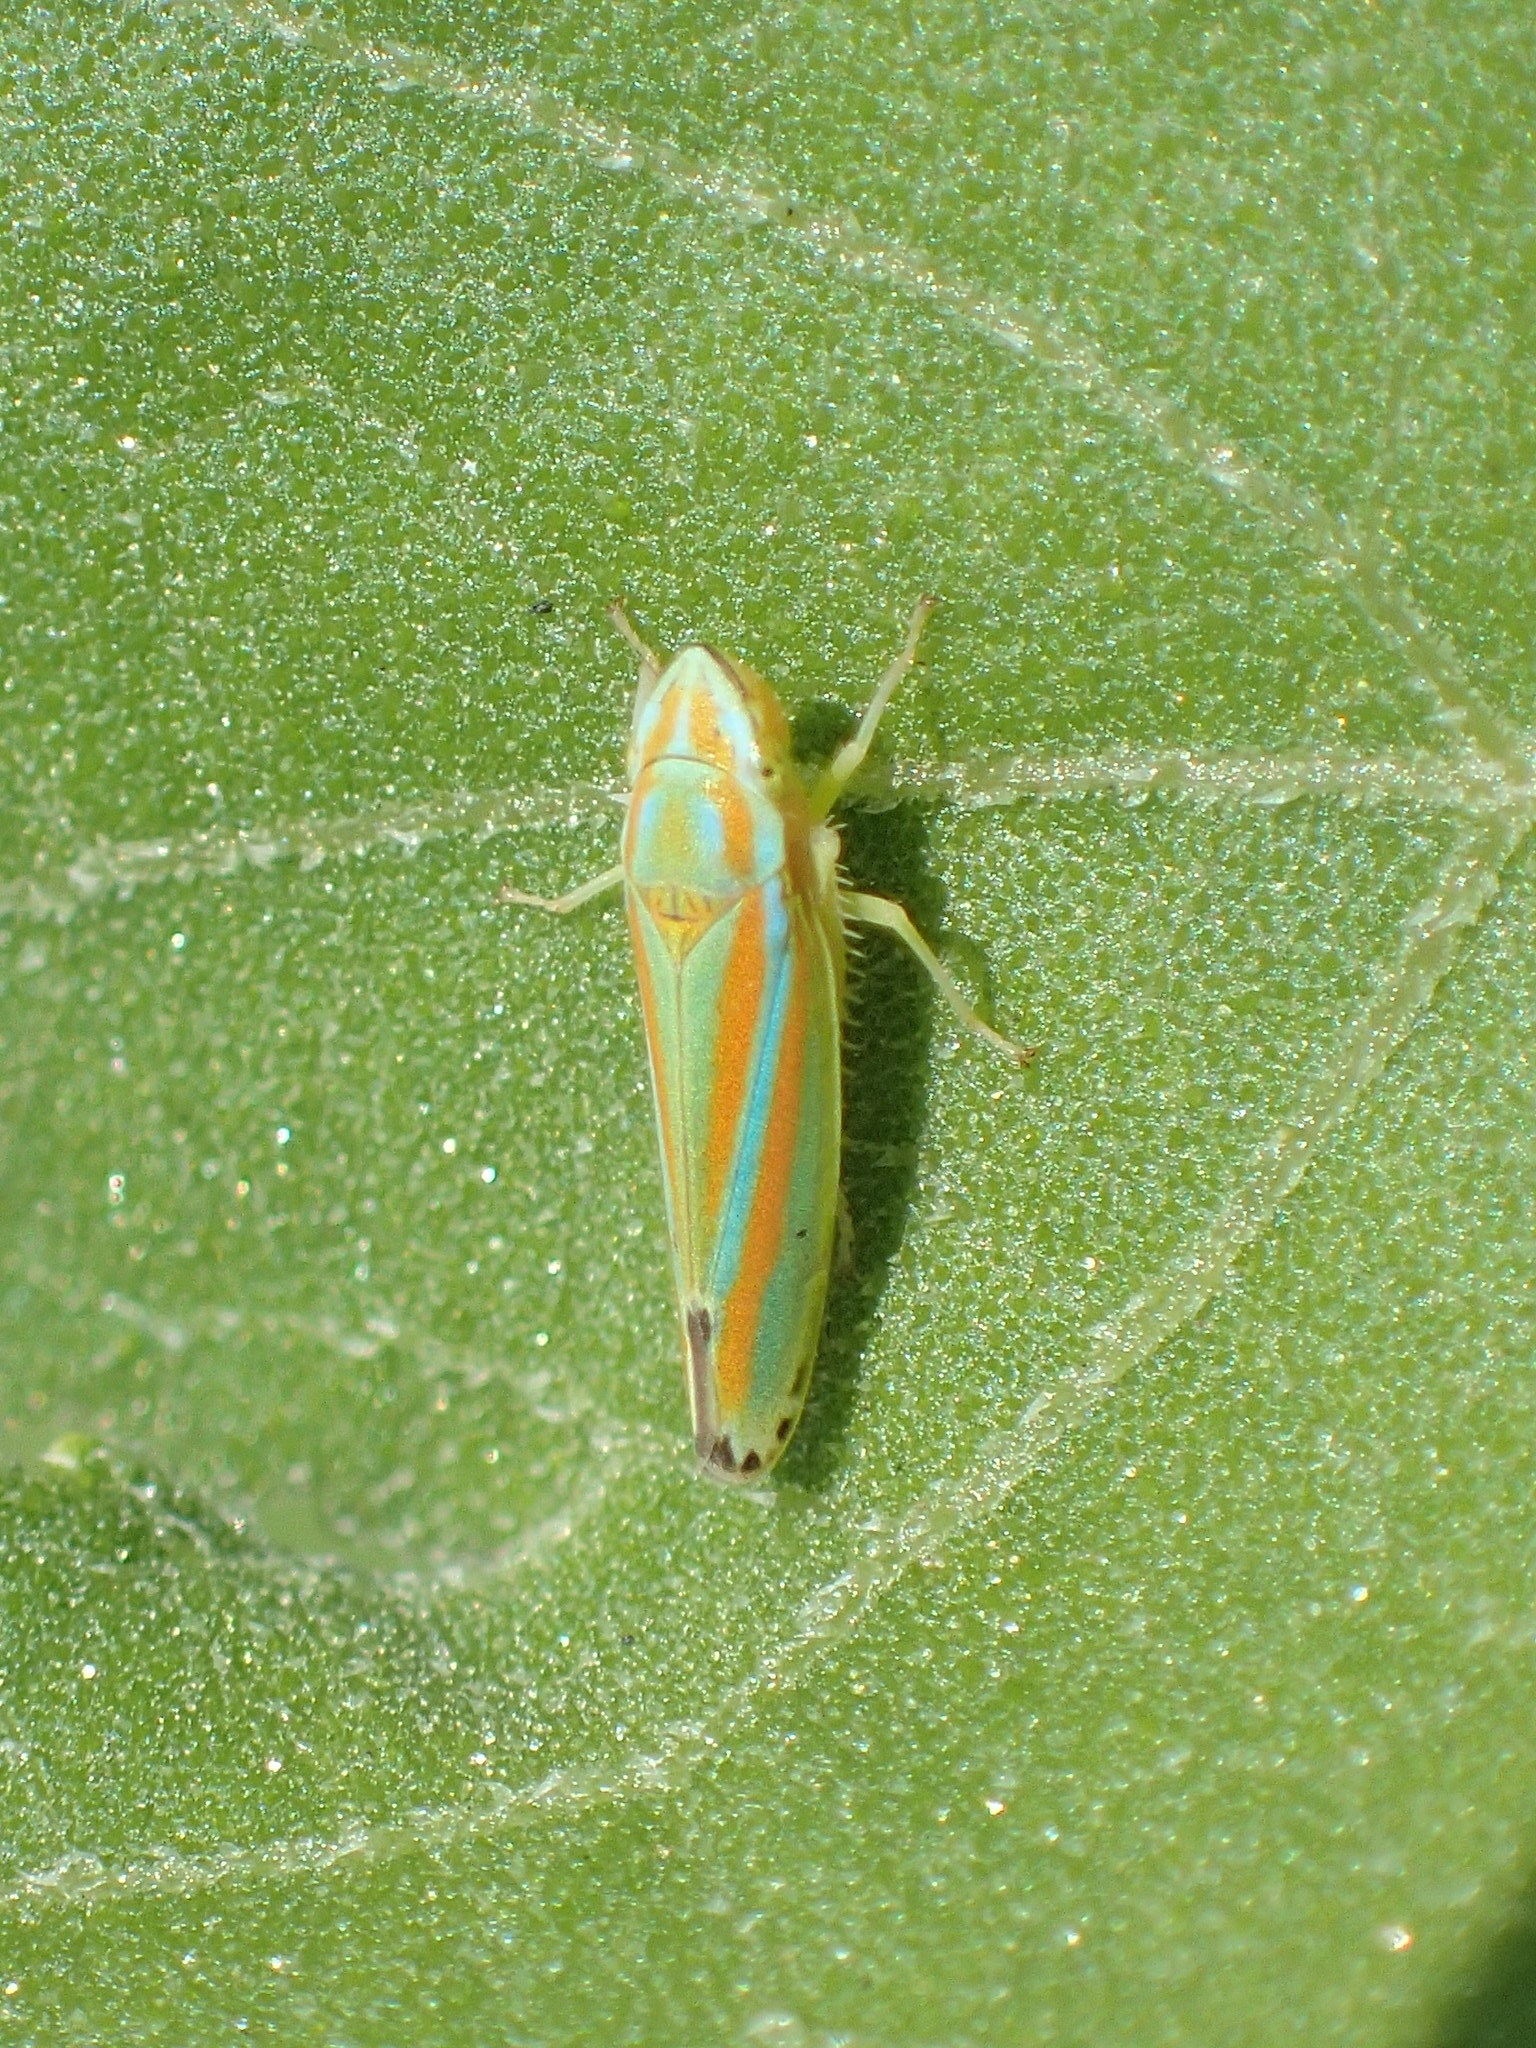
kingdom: Animalia
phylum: Arthropoda
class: Insecta
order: Hemiptera
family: Cicadellidae
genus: Graphocephala
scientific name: Graphocephala versuta
